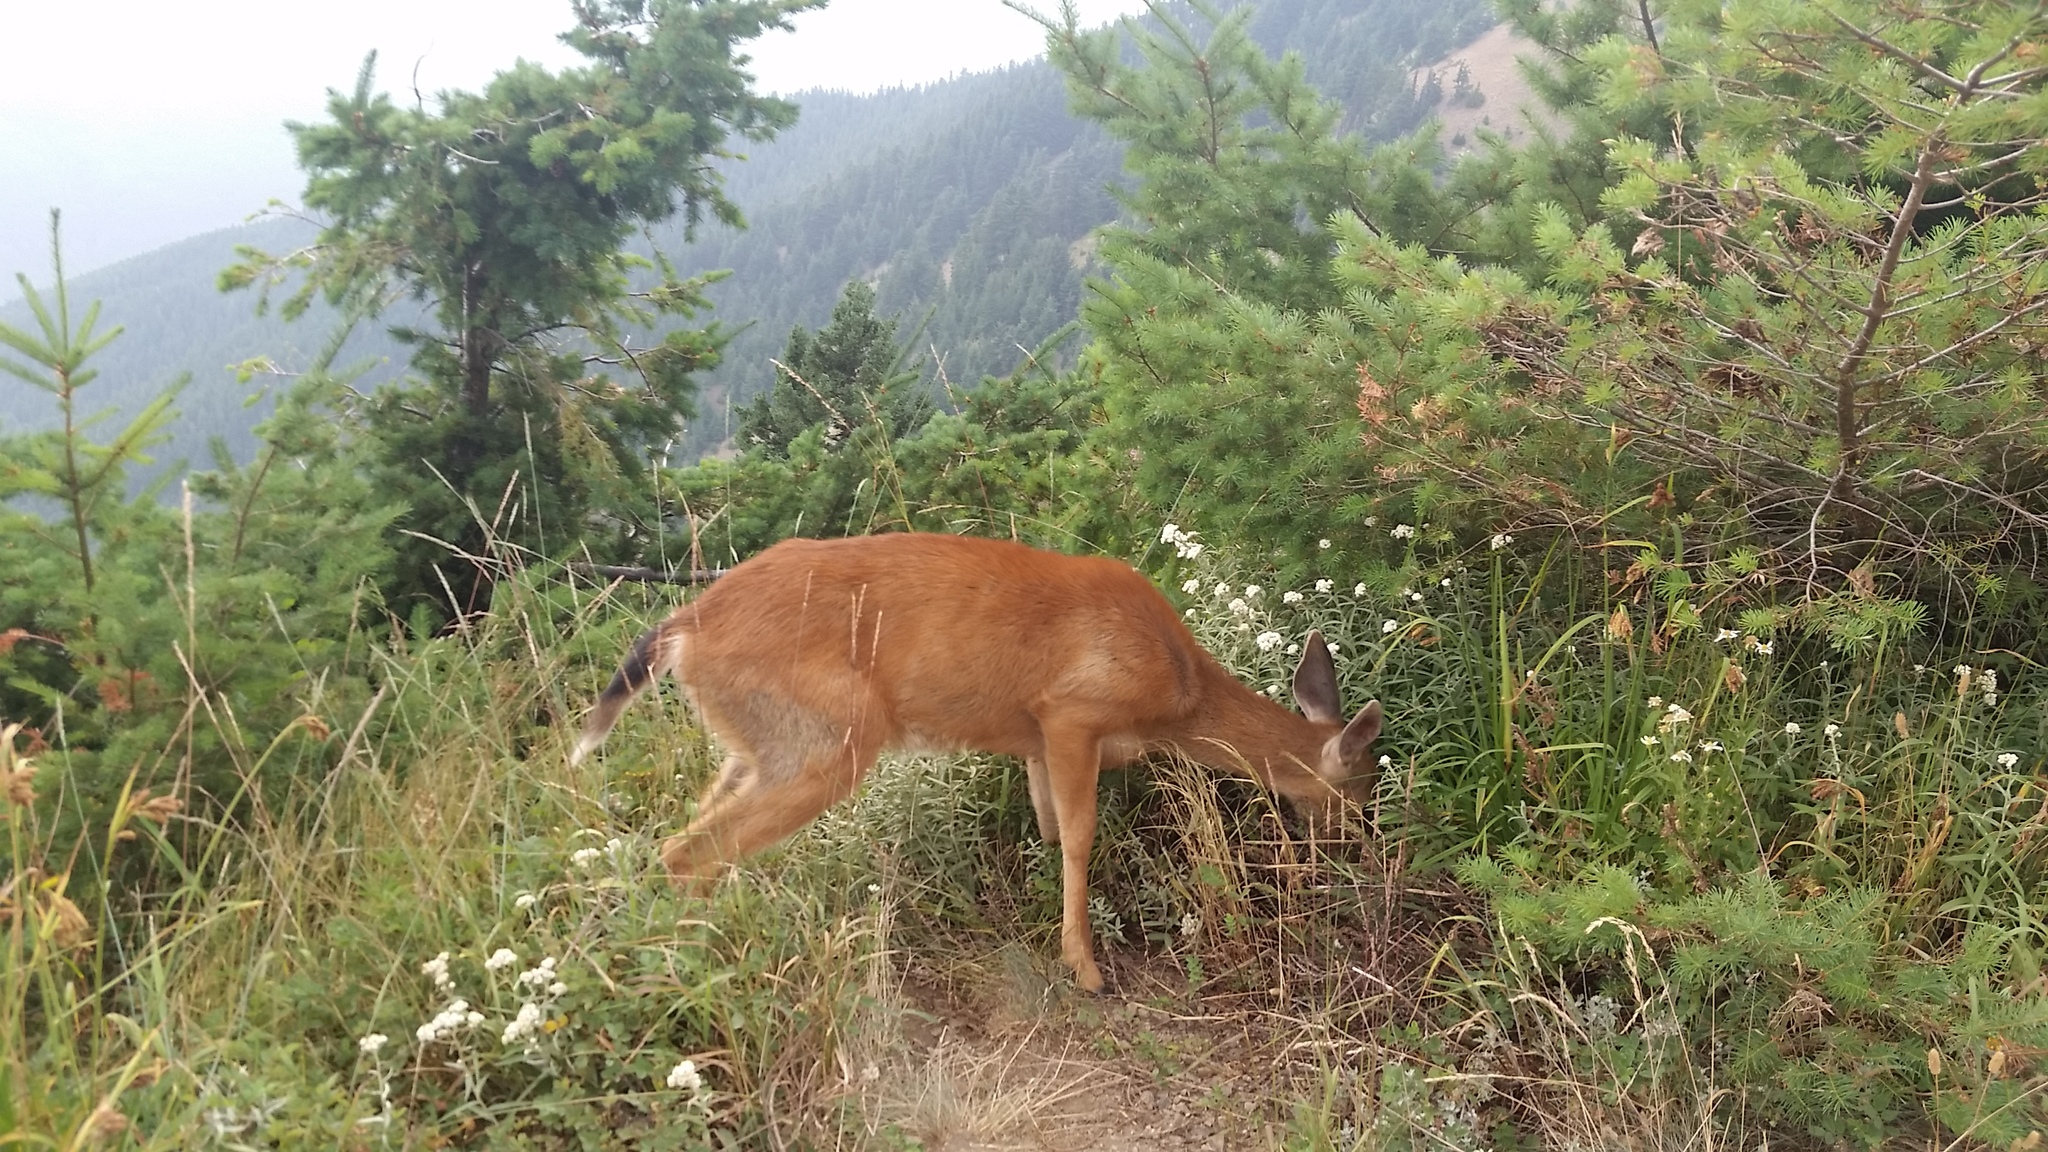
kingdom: Animalia
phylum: Chordata
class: Mammalia
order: Artiodactyla
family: Cervidae
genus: Odocoileus
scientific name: Odocoileus hemionus
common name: Mule deer
